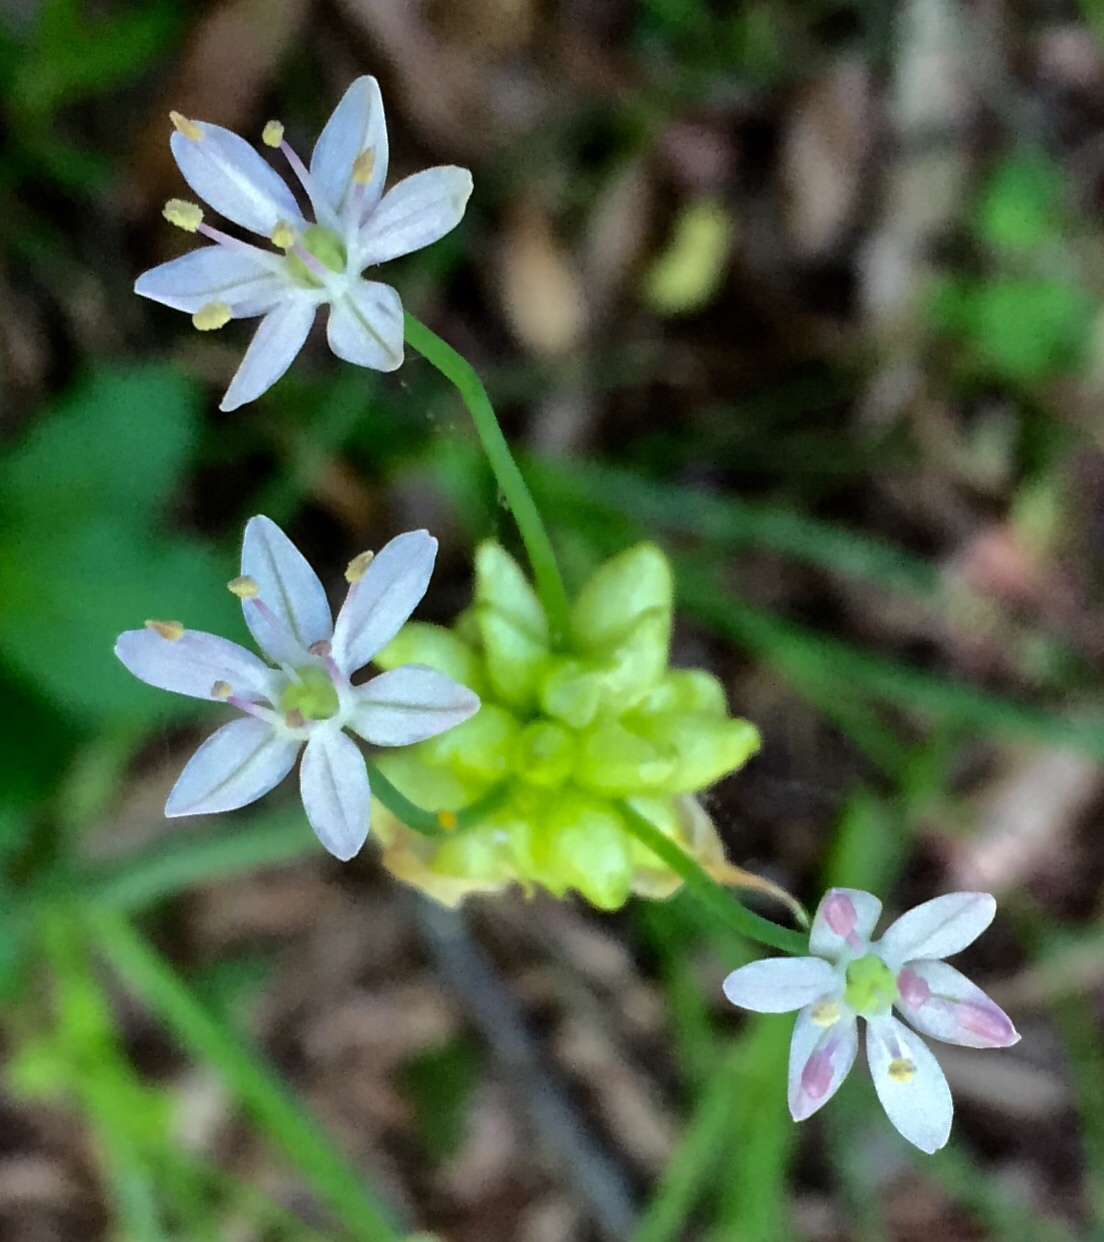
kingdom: Plantae
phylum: Tracheophyta
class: Liliopsida
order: Asparagales
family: Amaryllidaceae
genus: Allium
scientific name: Allium canadense
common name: Meadow garlic
